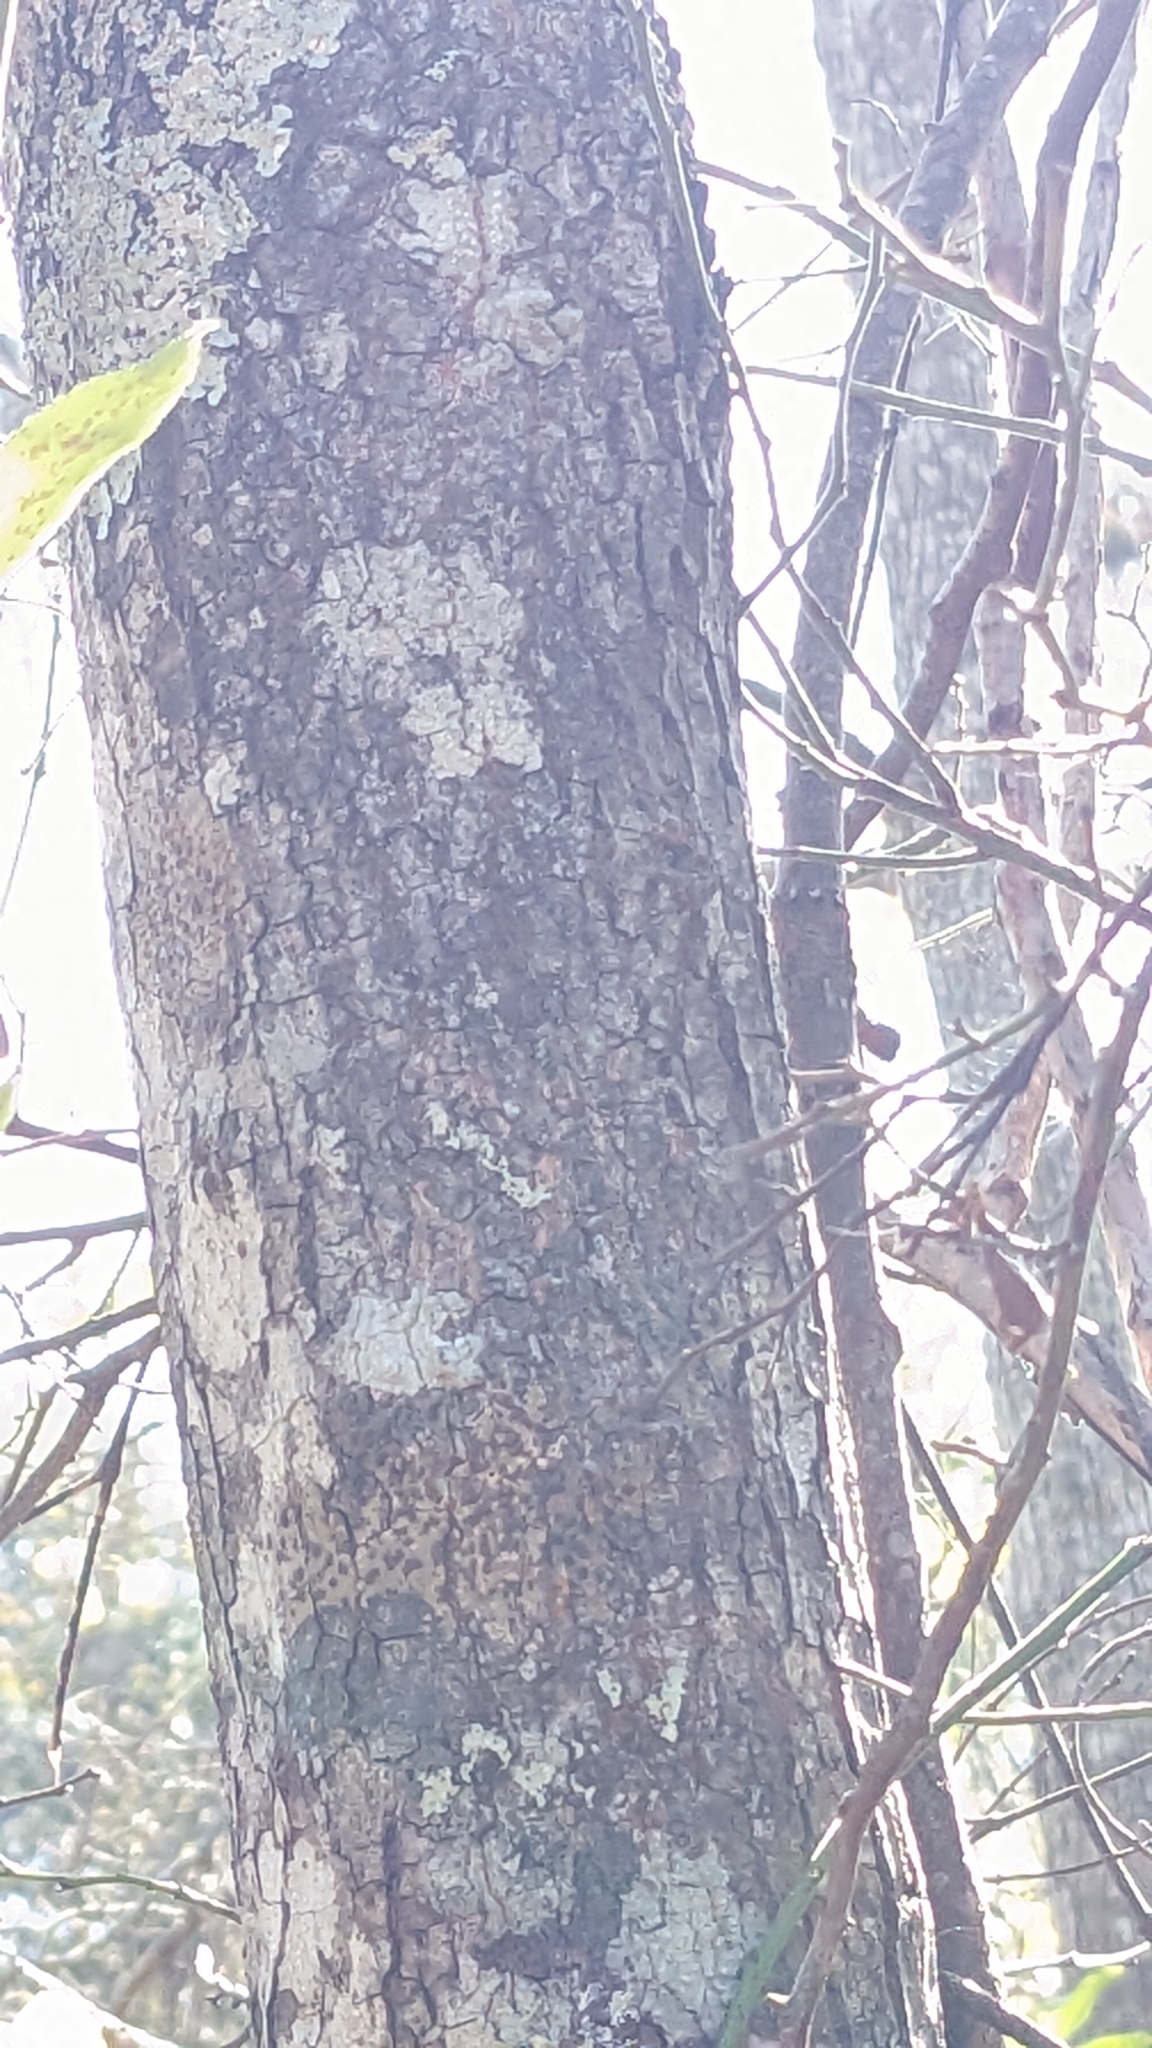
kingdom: Plantae
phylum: Tracheophyta
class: Magnoliopsida
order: Ericales
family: Ebenaceae
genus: Diospyros
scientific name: Diospyros virginiana
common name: Persimmon
